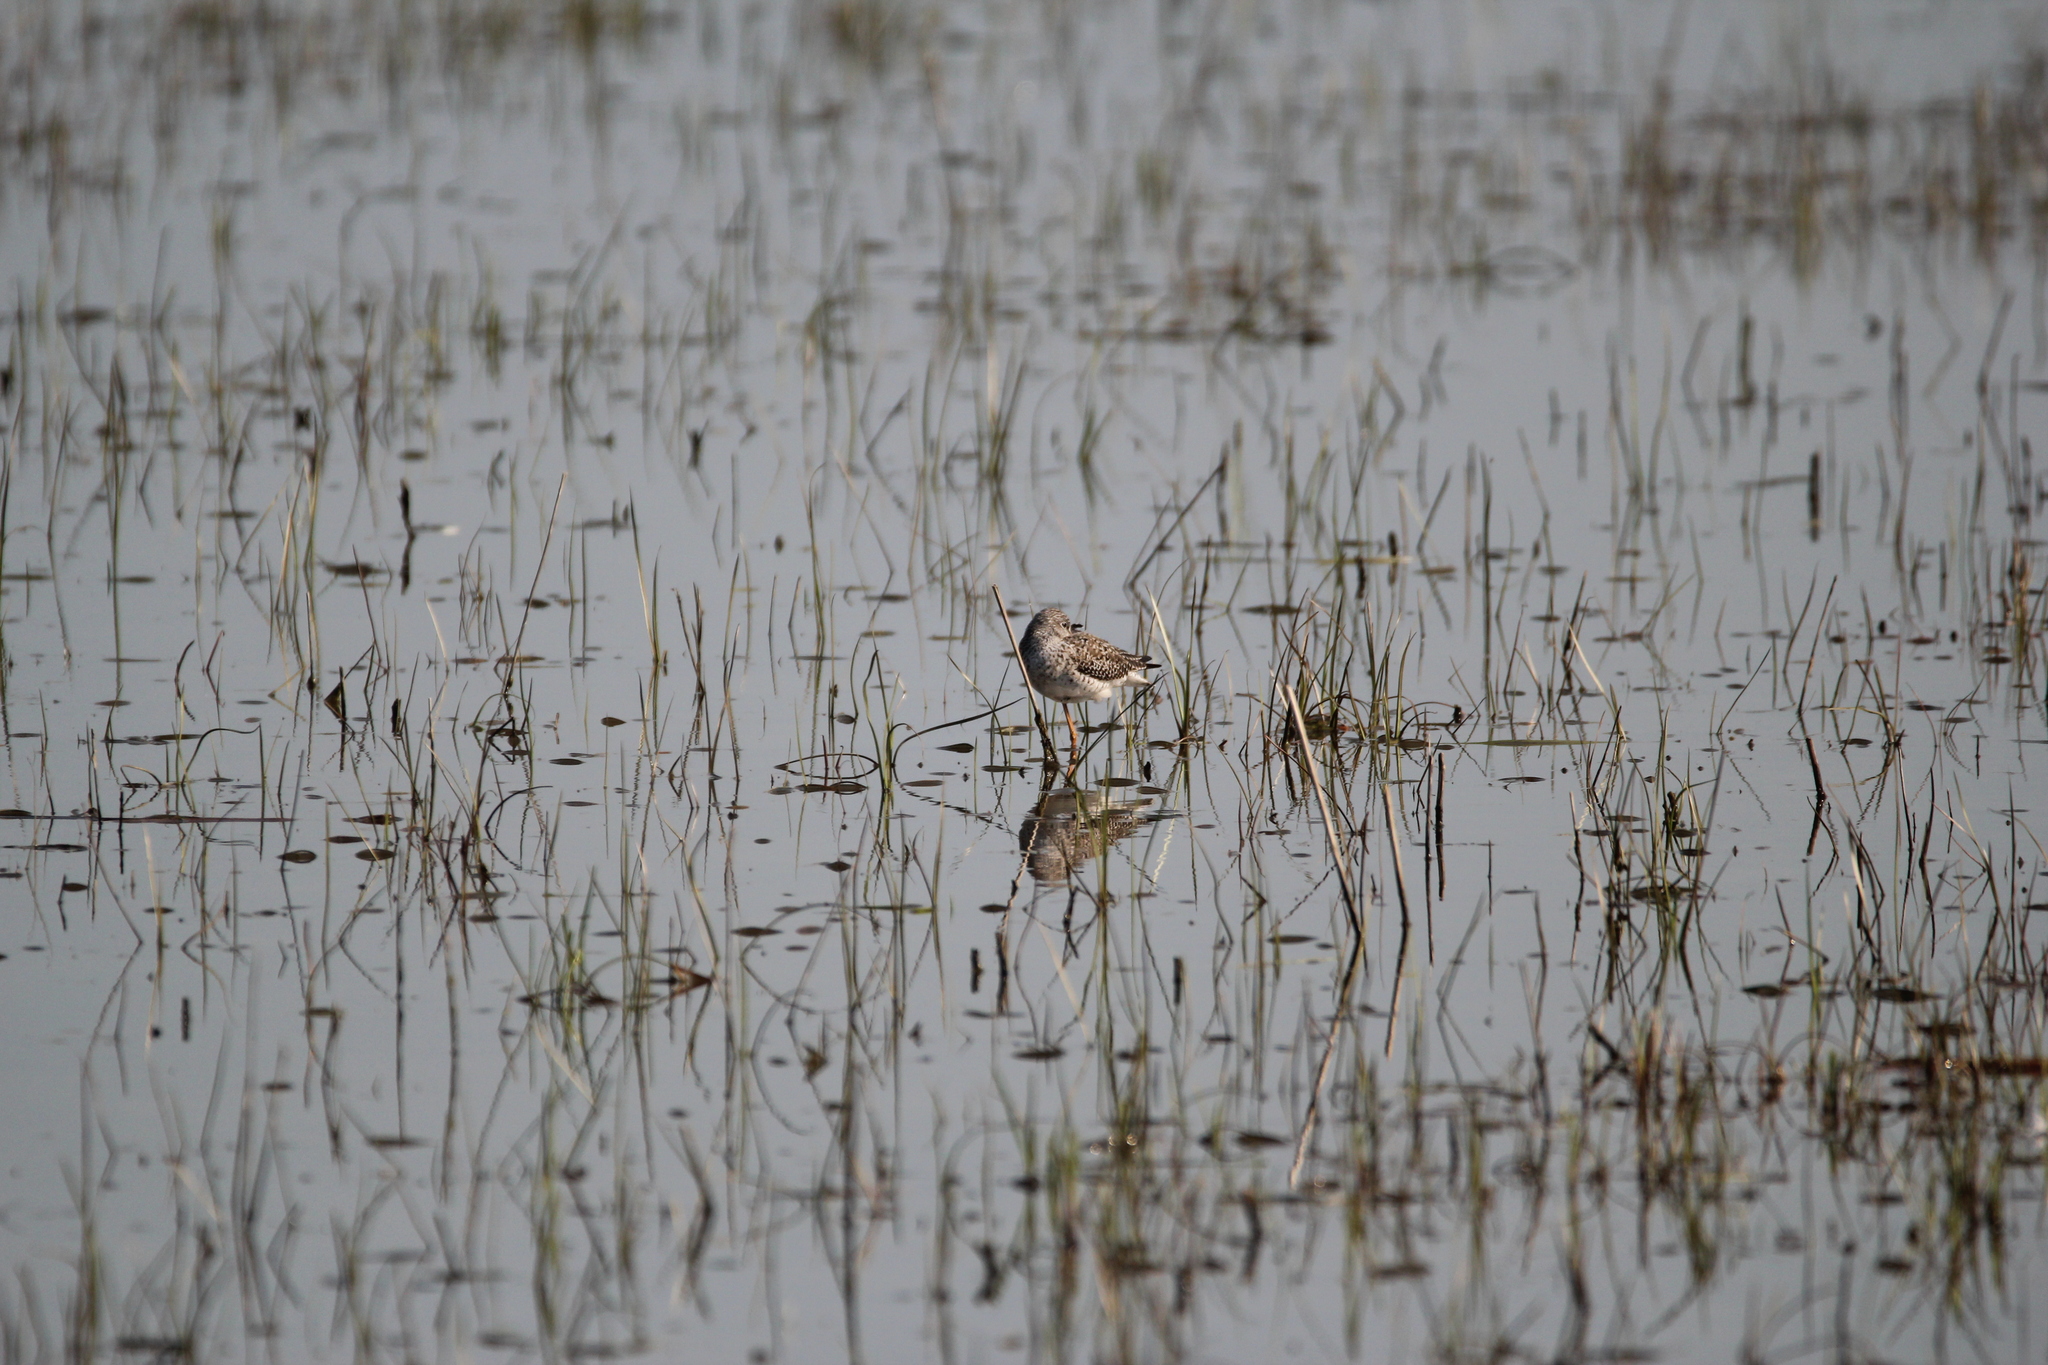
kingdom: Animalia
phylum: Chordata
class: Aves
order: Charadriiformes
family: Scolopacidae
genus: Tringa
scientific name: Tringa flavipes
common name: Lesser yellowlegs
